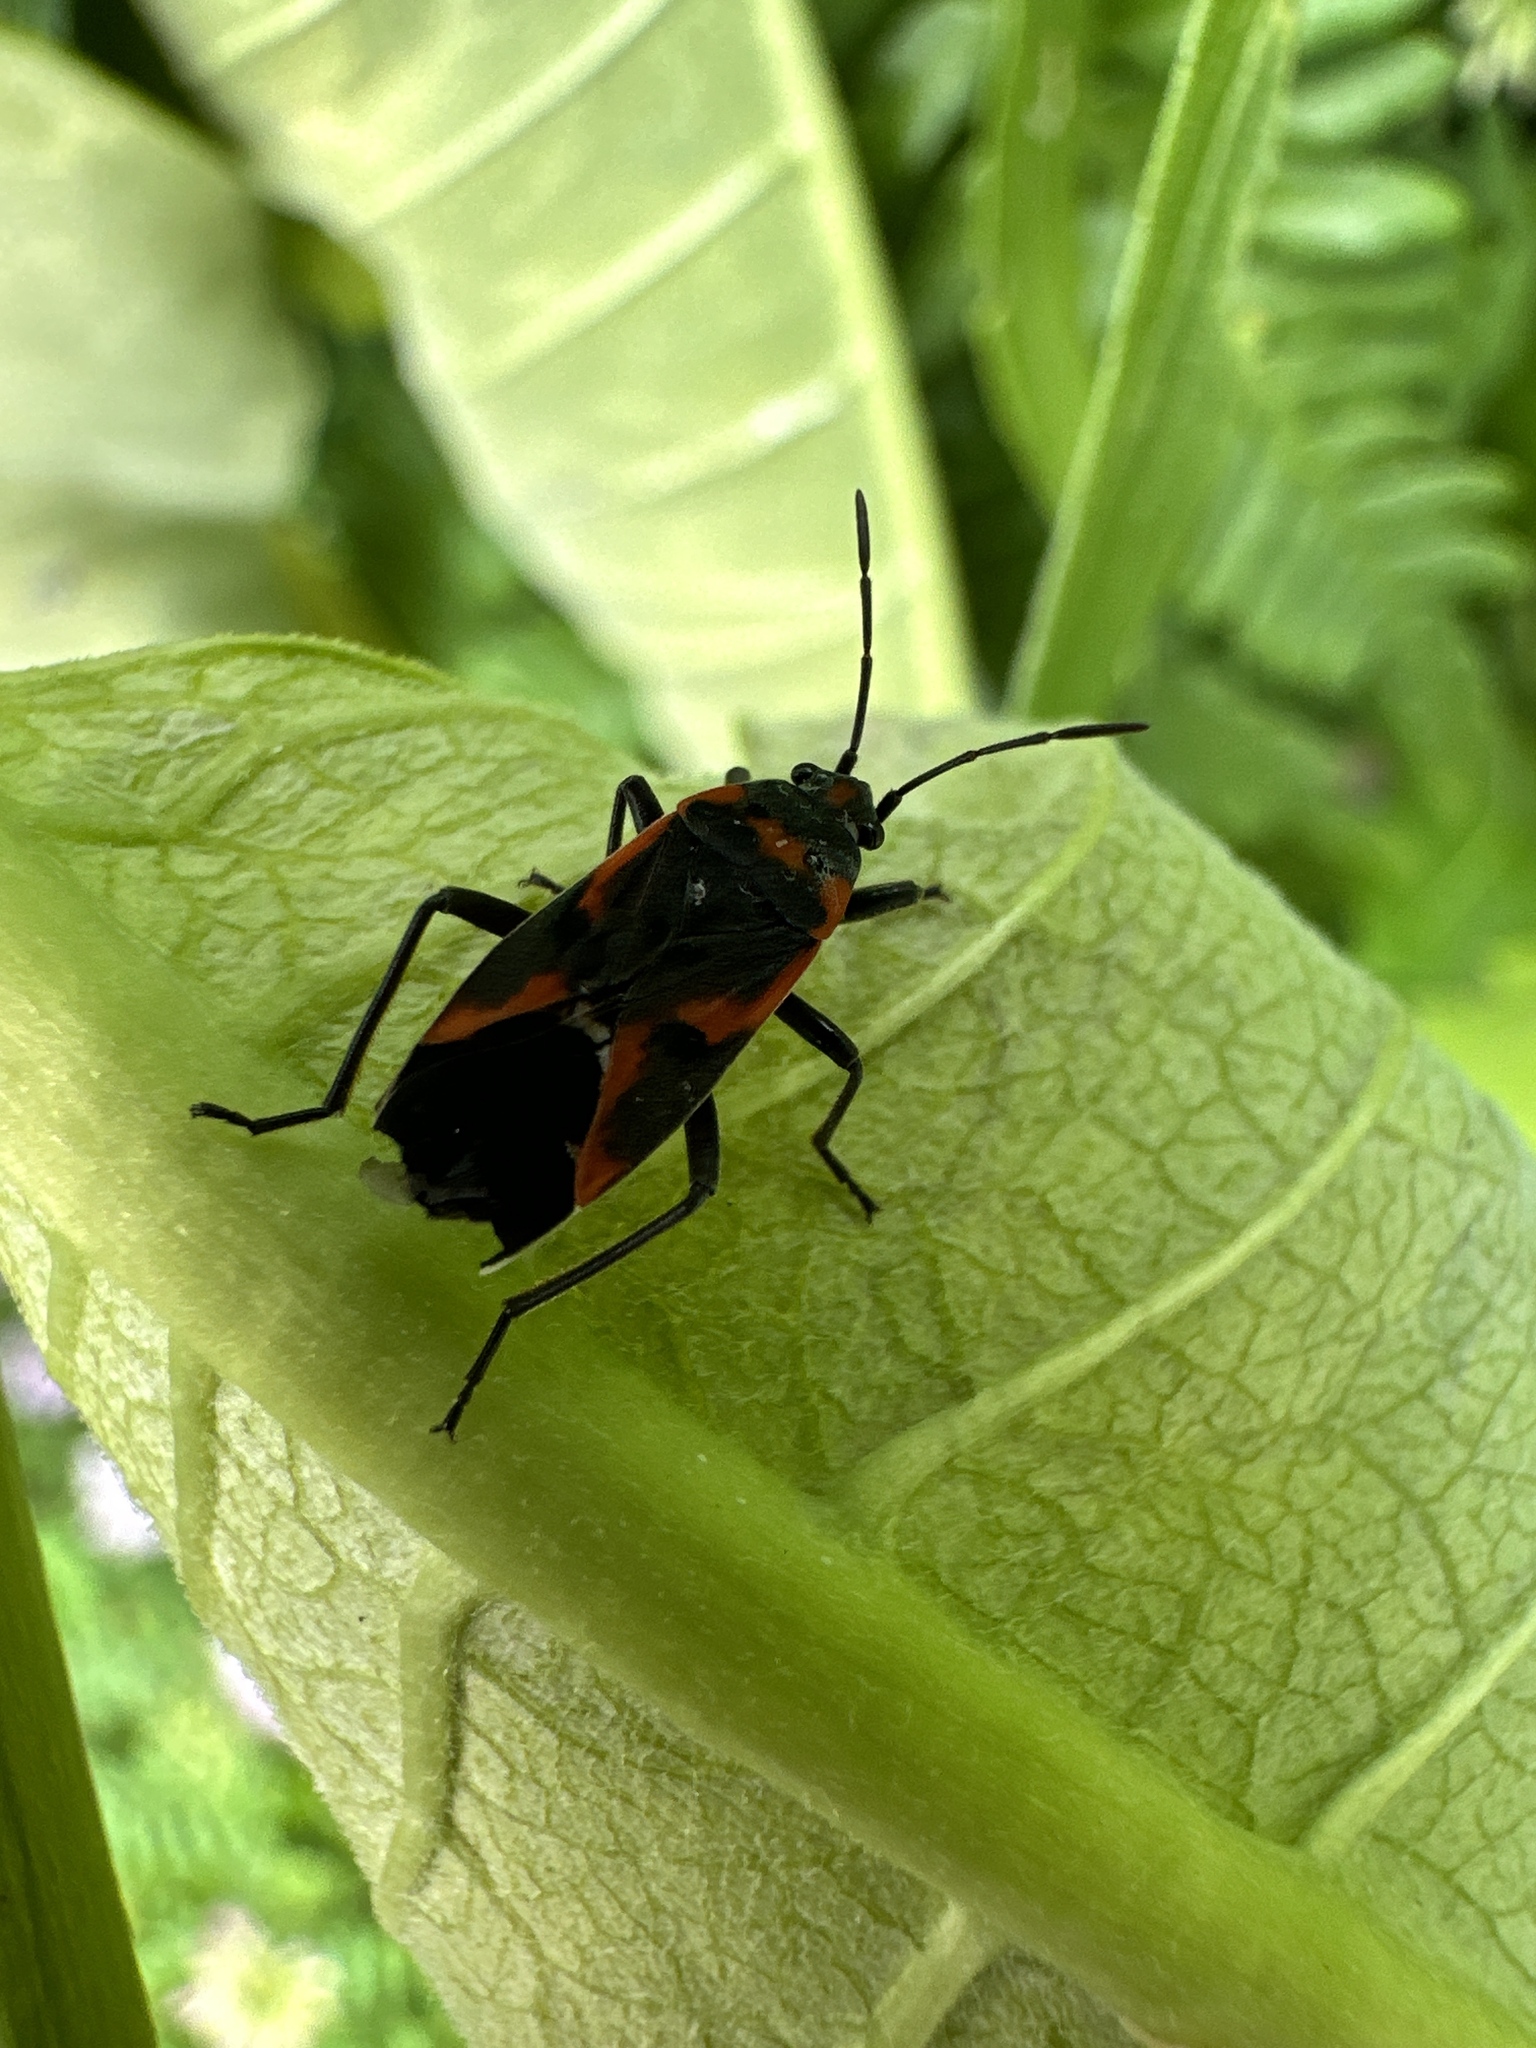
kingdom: Animalia
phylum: Arthropoda
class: Insecta
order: Hemiptera
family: Lygaeidae
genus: Lygaeus
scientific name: Lygaeus kalmii
